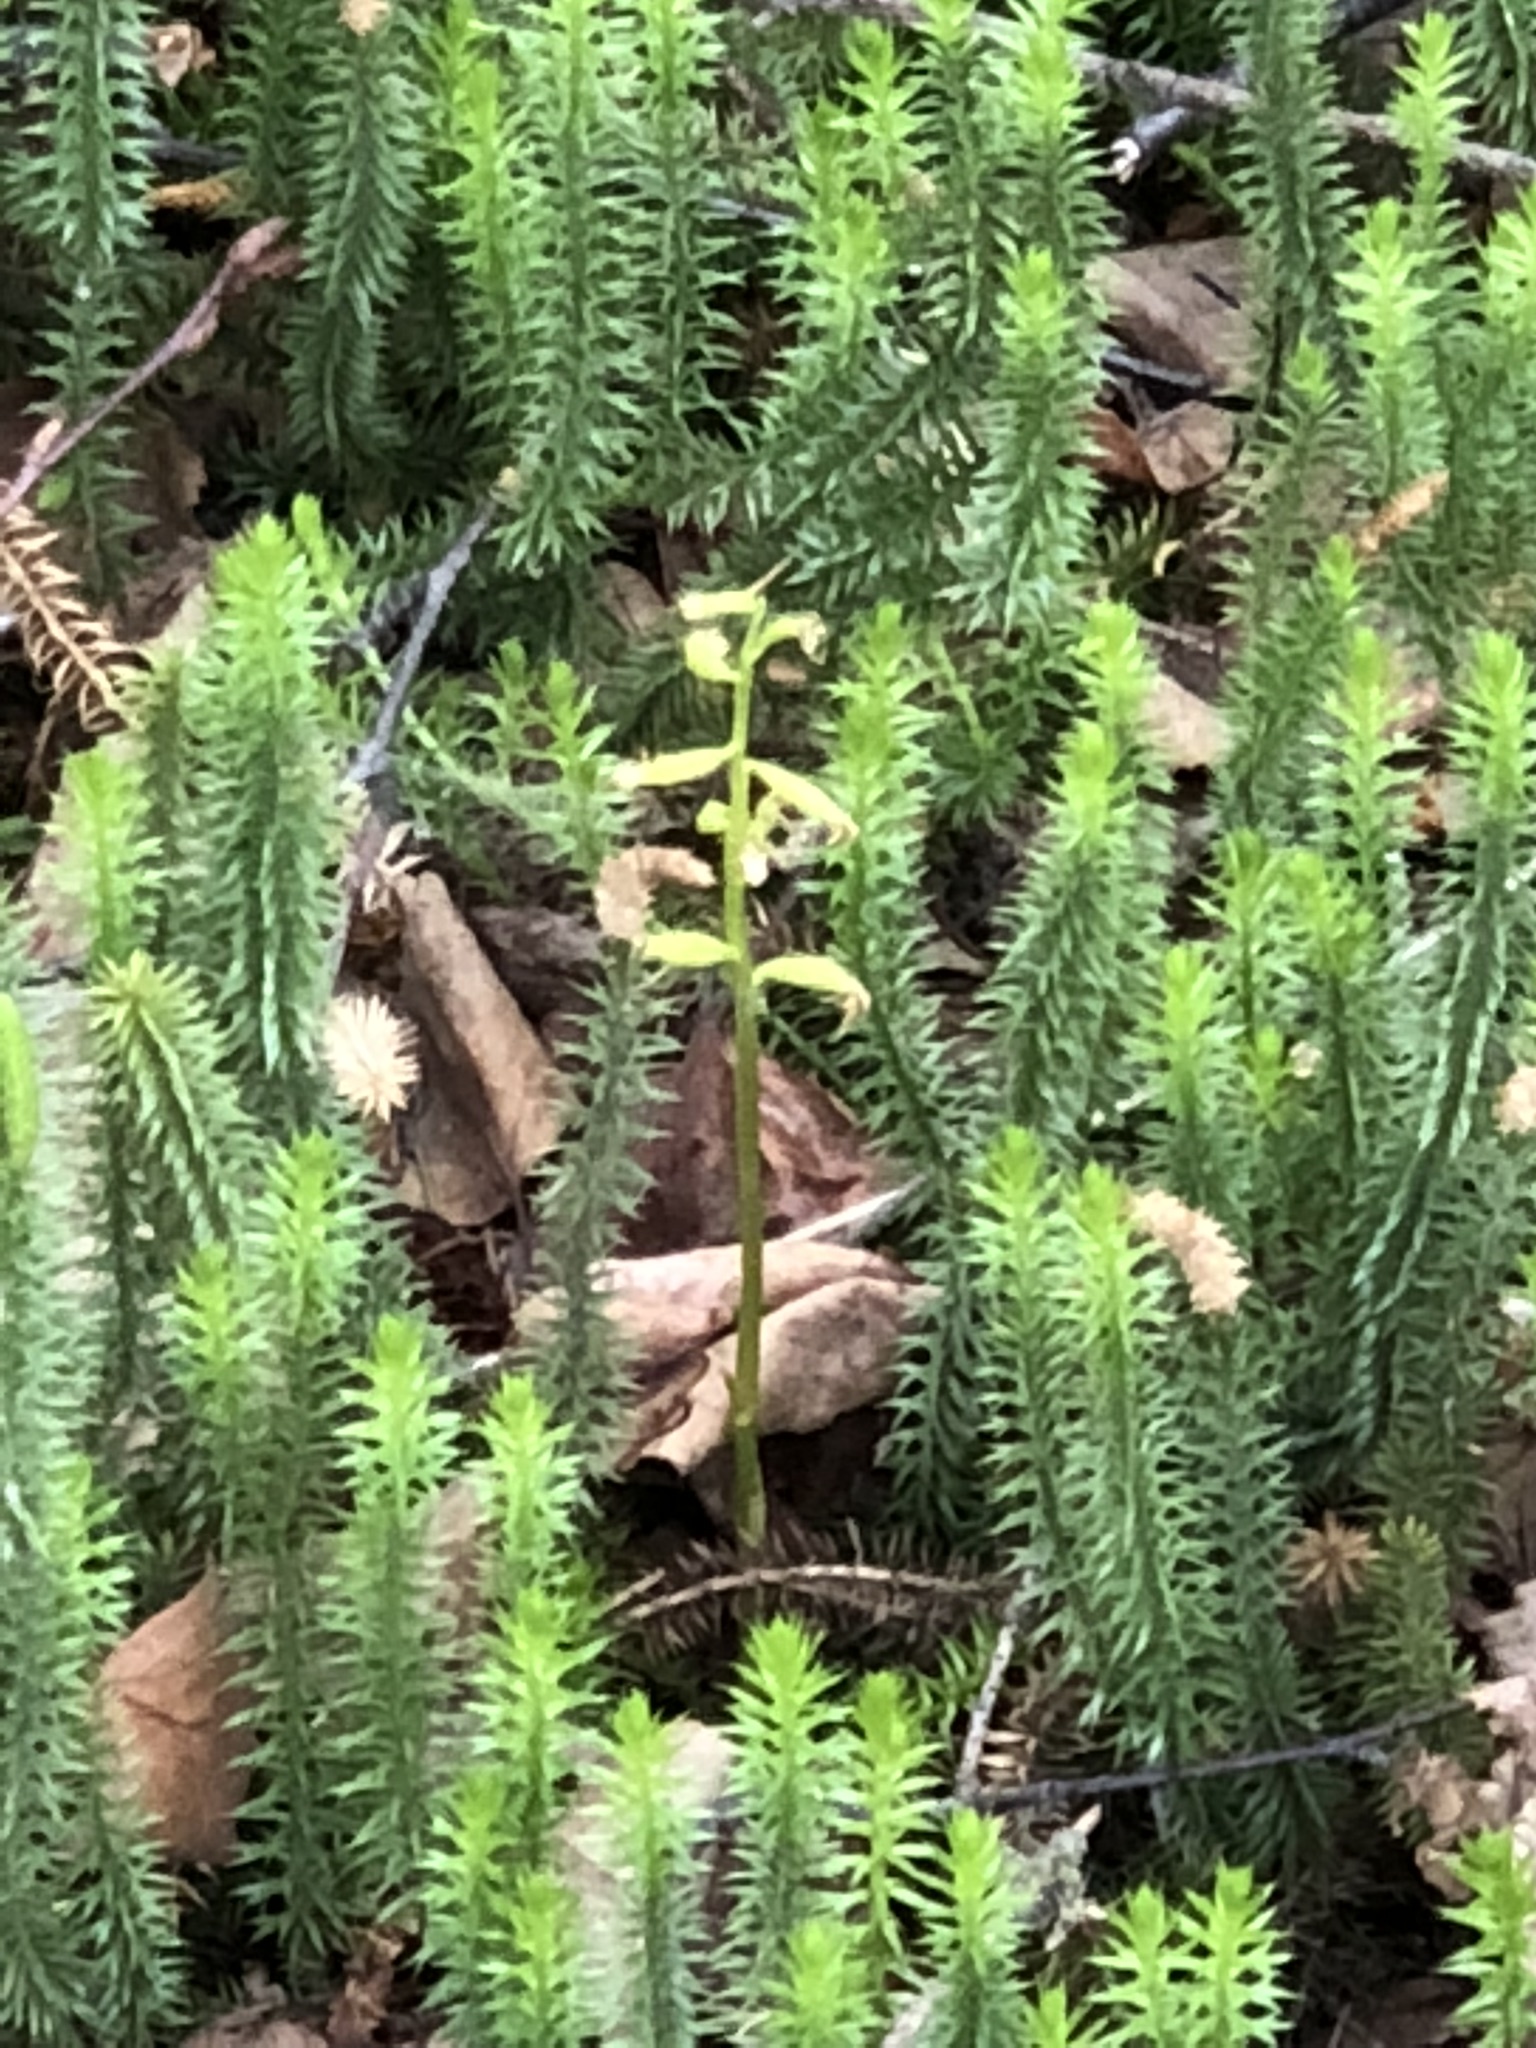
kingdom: Plantae
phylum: Tracheophyta
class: Liliopsida
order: Asparagales
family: Orchidaceae
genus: Corallorhiza
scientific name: Corallorhiza trifida
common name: Yellow coralroot
